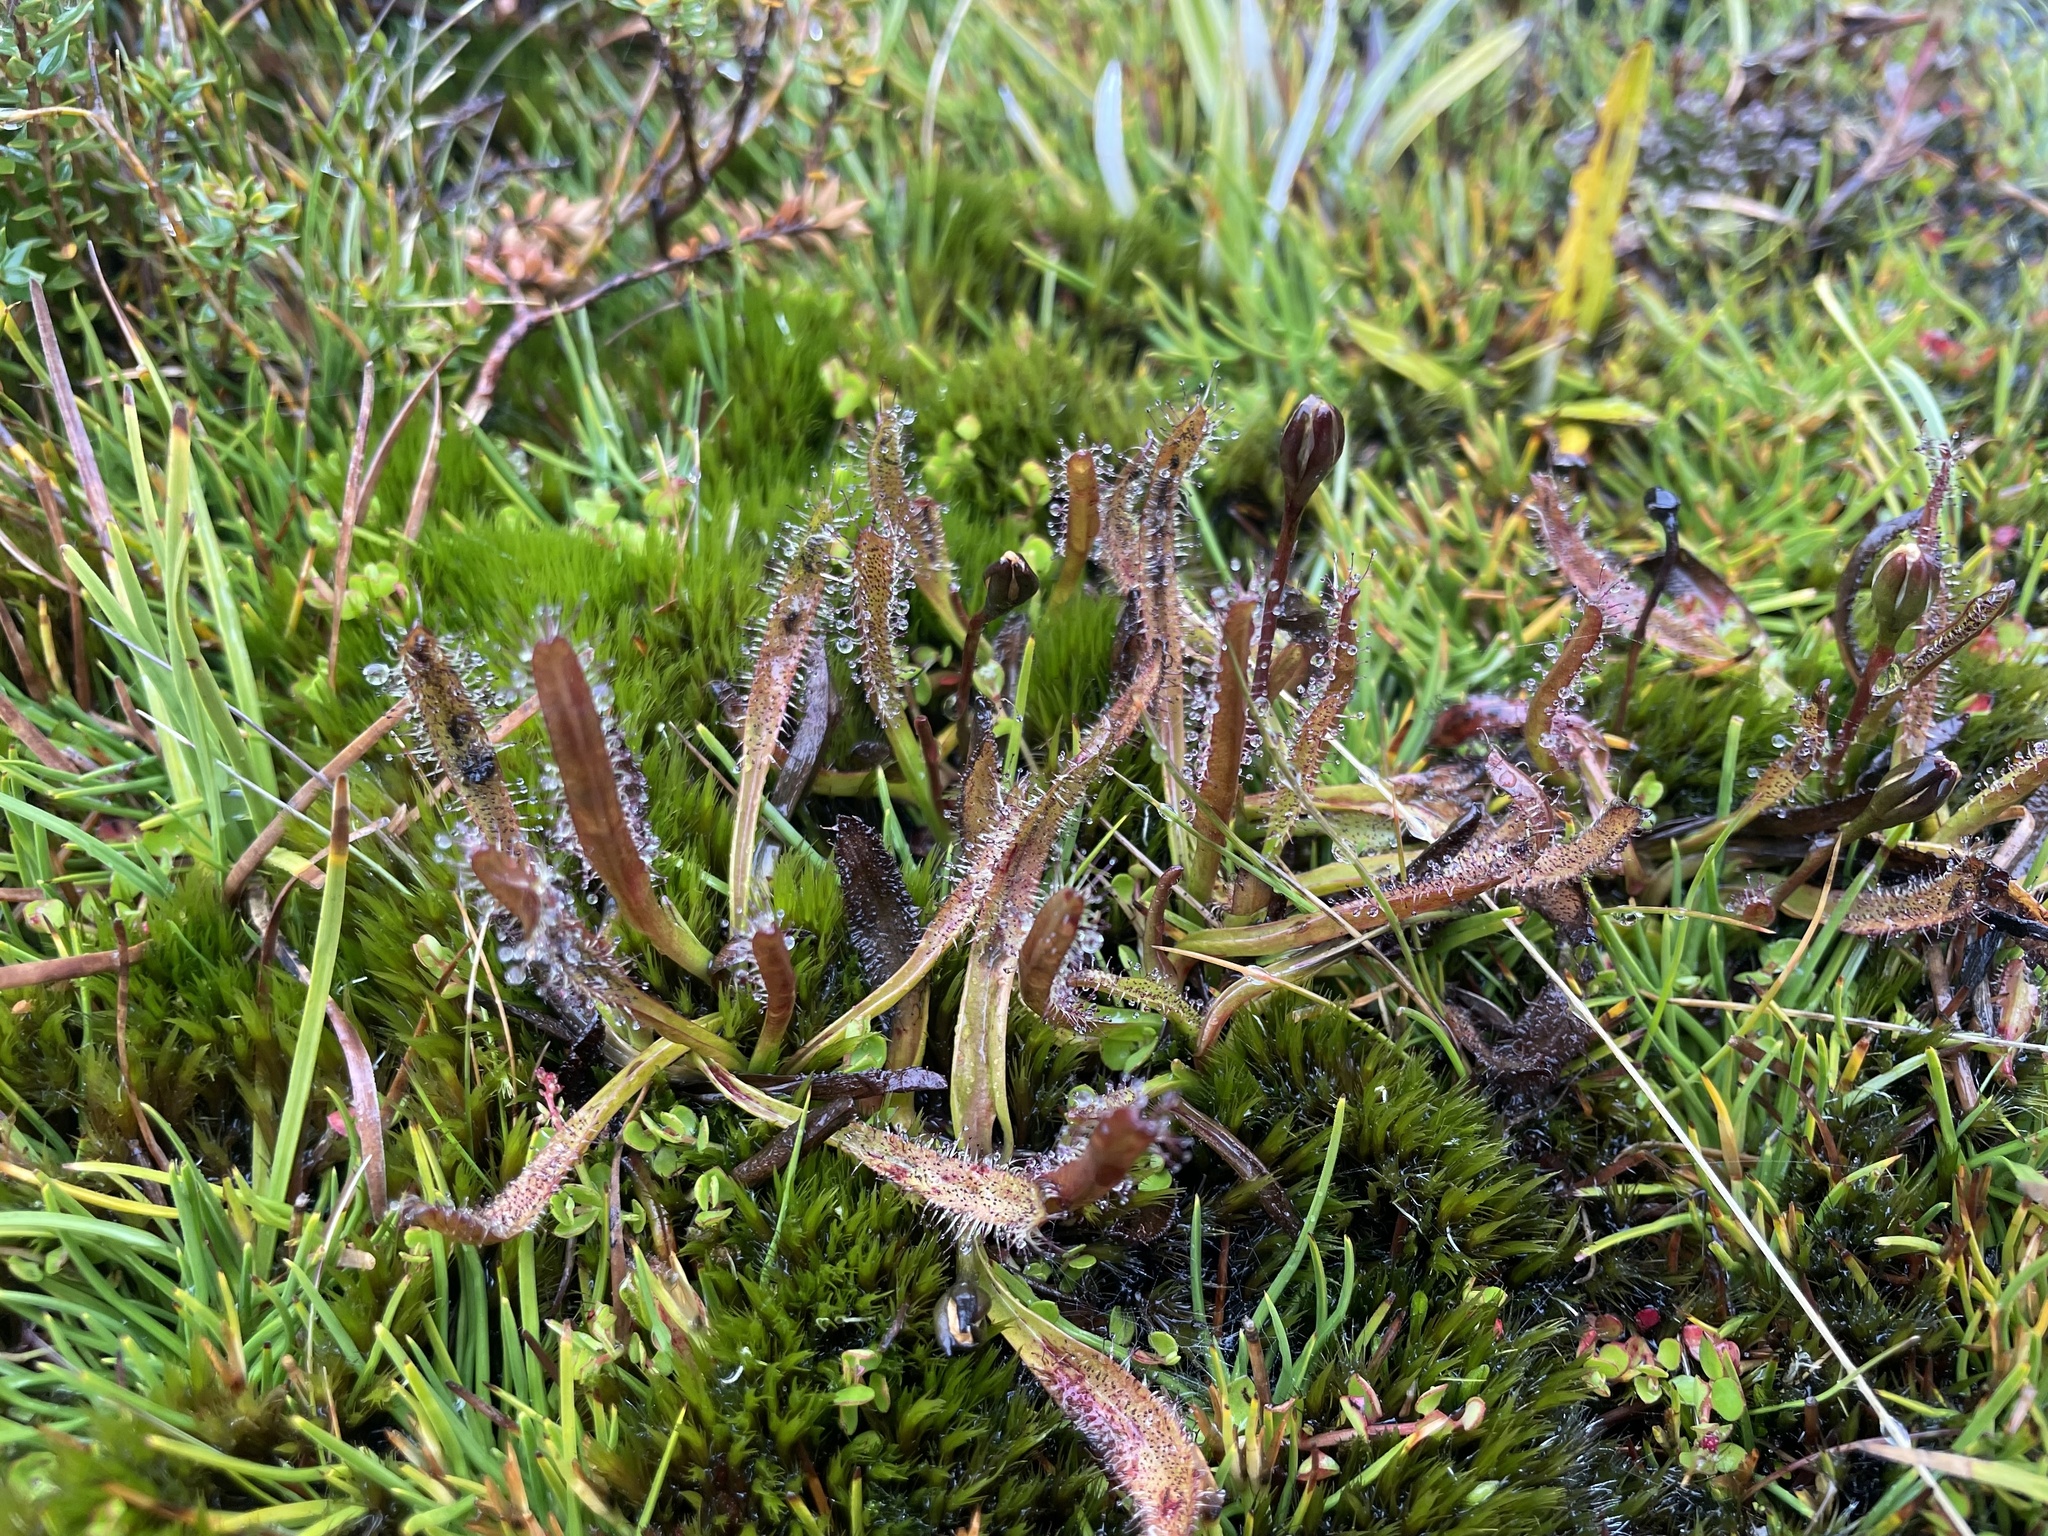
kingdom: Plantae
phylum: Tracheophyta
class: Magnoliopsida
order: Caryophyllales
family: Droseraceae
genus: Drosera
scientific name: Drosera arcturi
